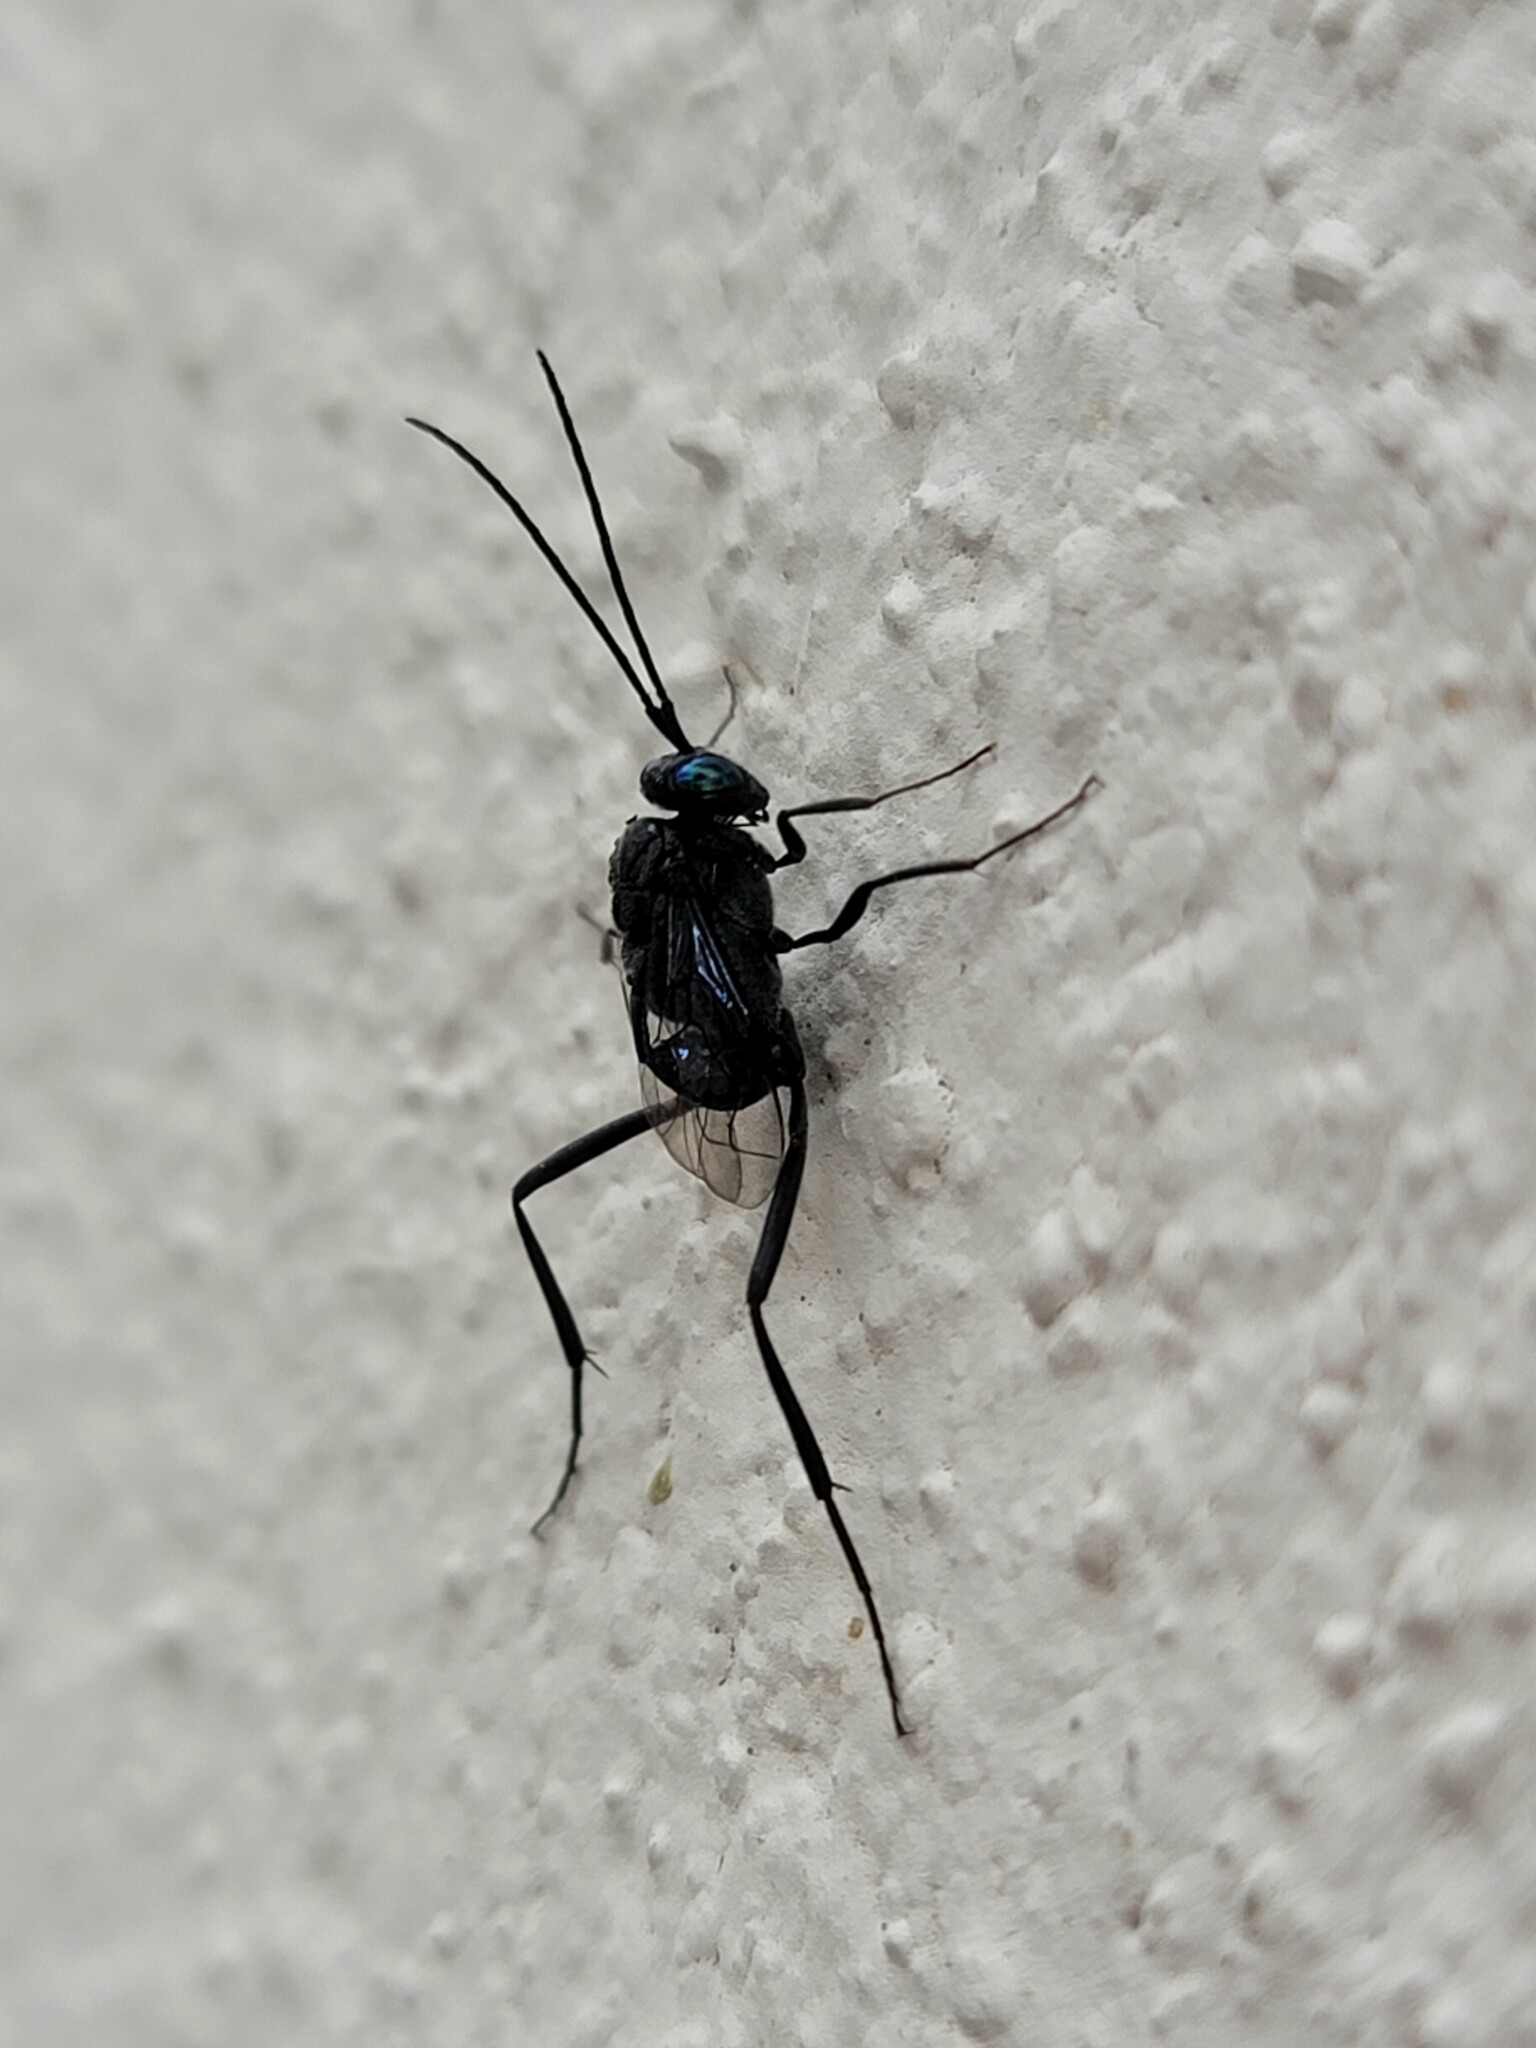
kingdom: Animalia
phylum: Arthropoda
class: Insecta
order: Hymenoptera
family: Evaniidae
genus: Evania
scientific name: Evania appendigaster
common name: Ensign wasp
